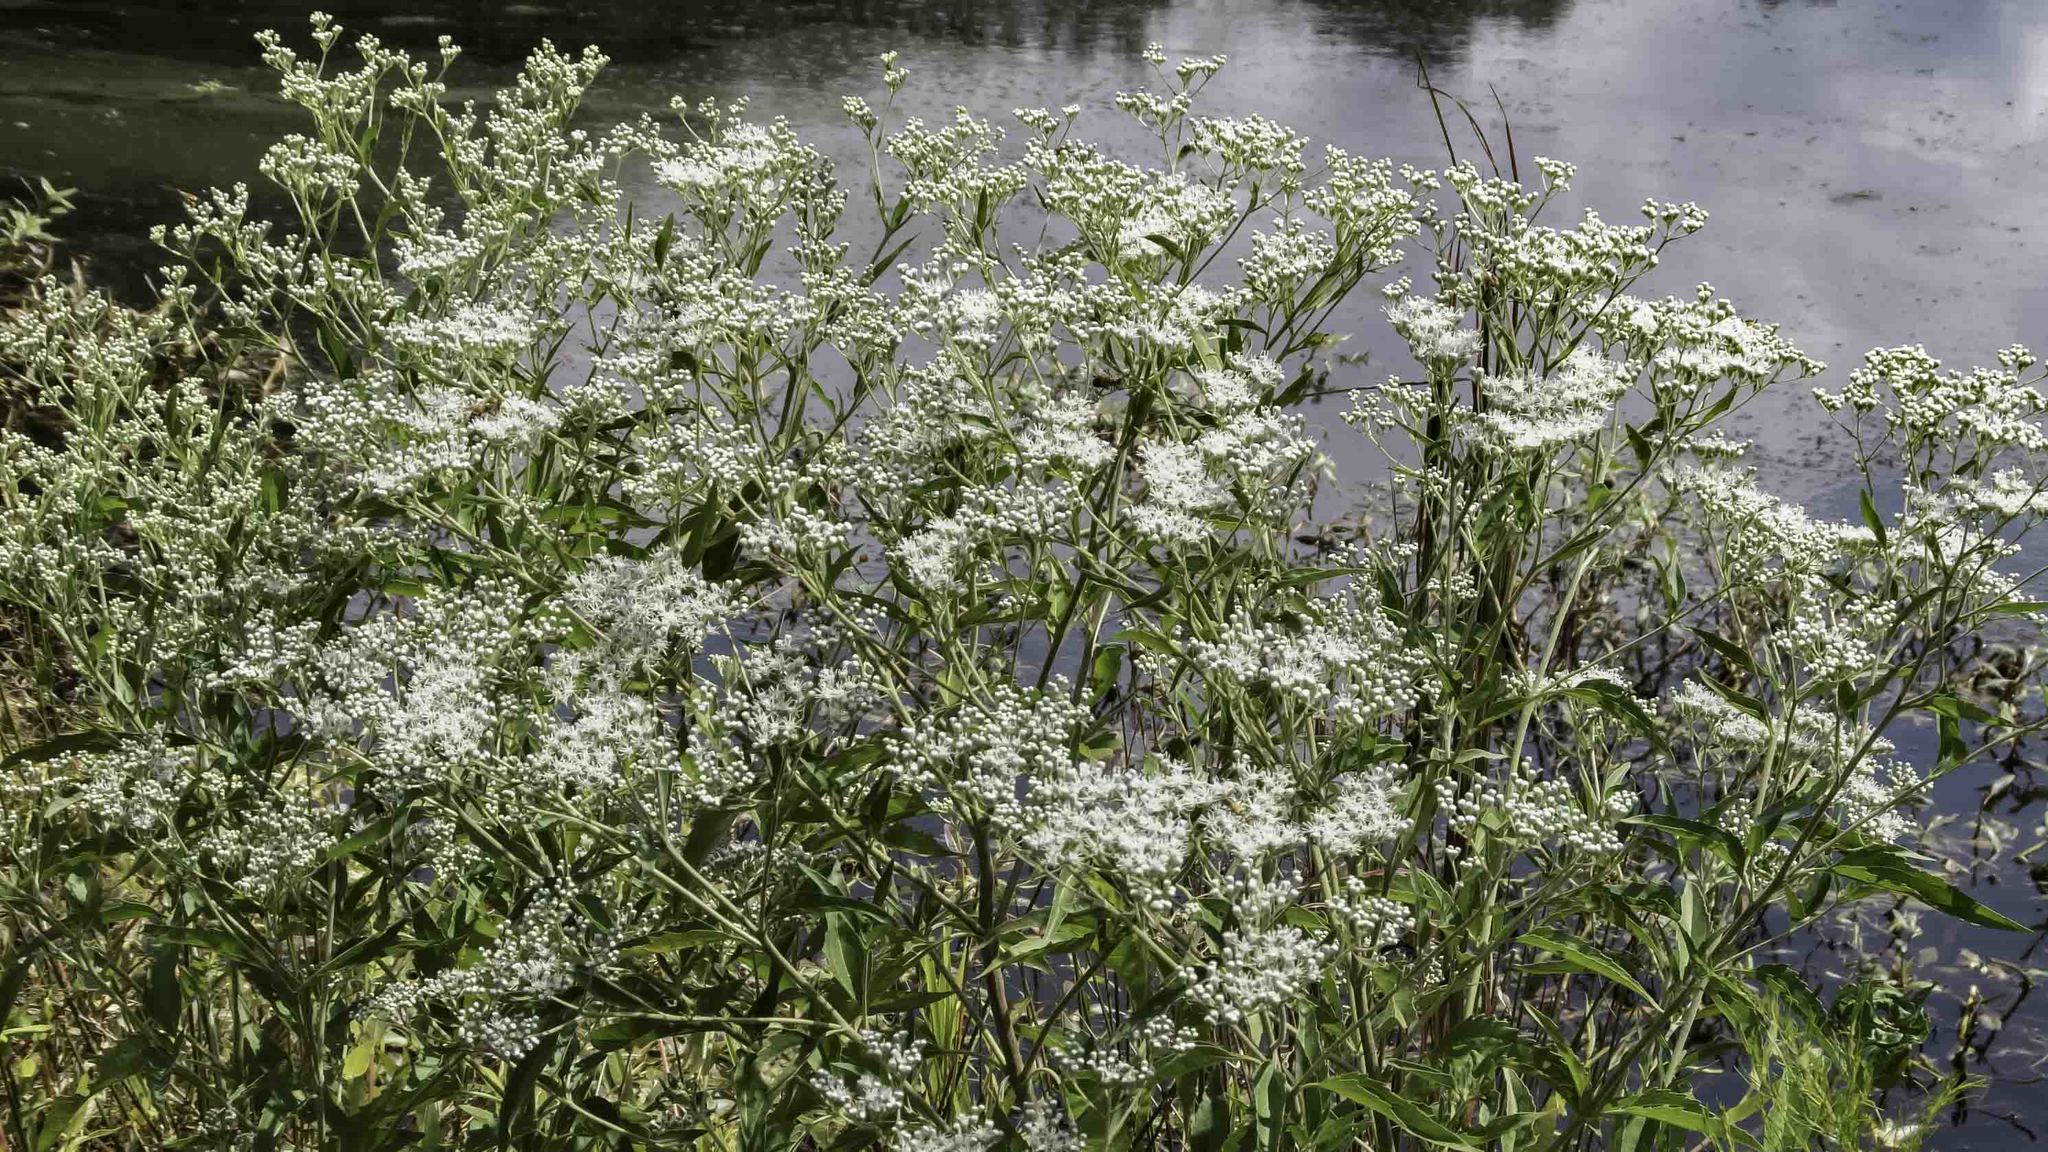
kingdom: Plantae
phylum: Tracheophyta
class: Magnoliopsida
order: Asterales
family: Asteraceae
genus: Eupatorium
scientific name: Eupatorium serotinum
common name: Late boneset
